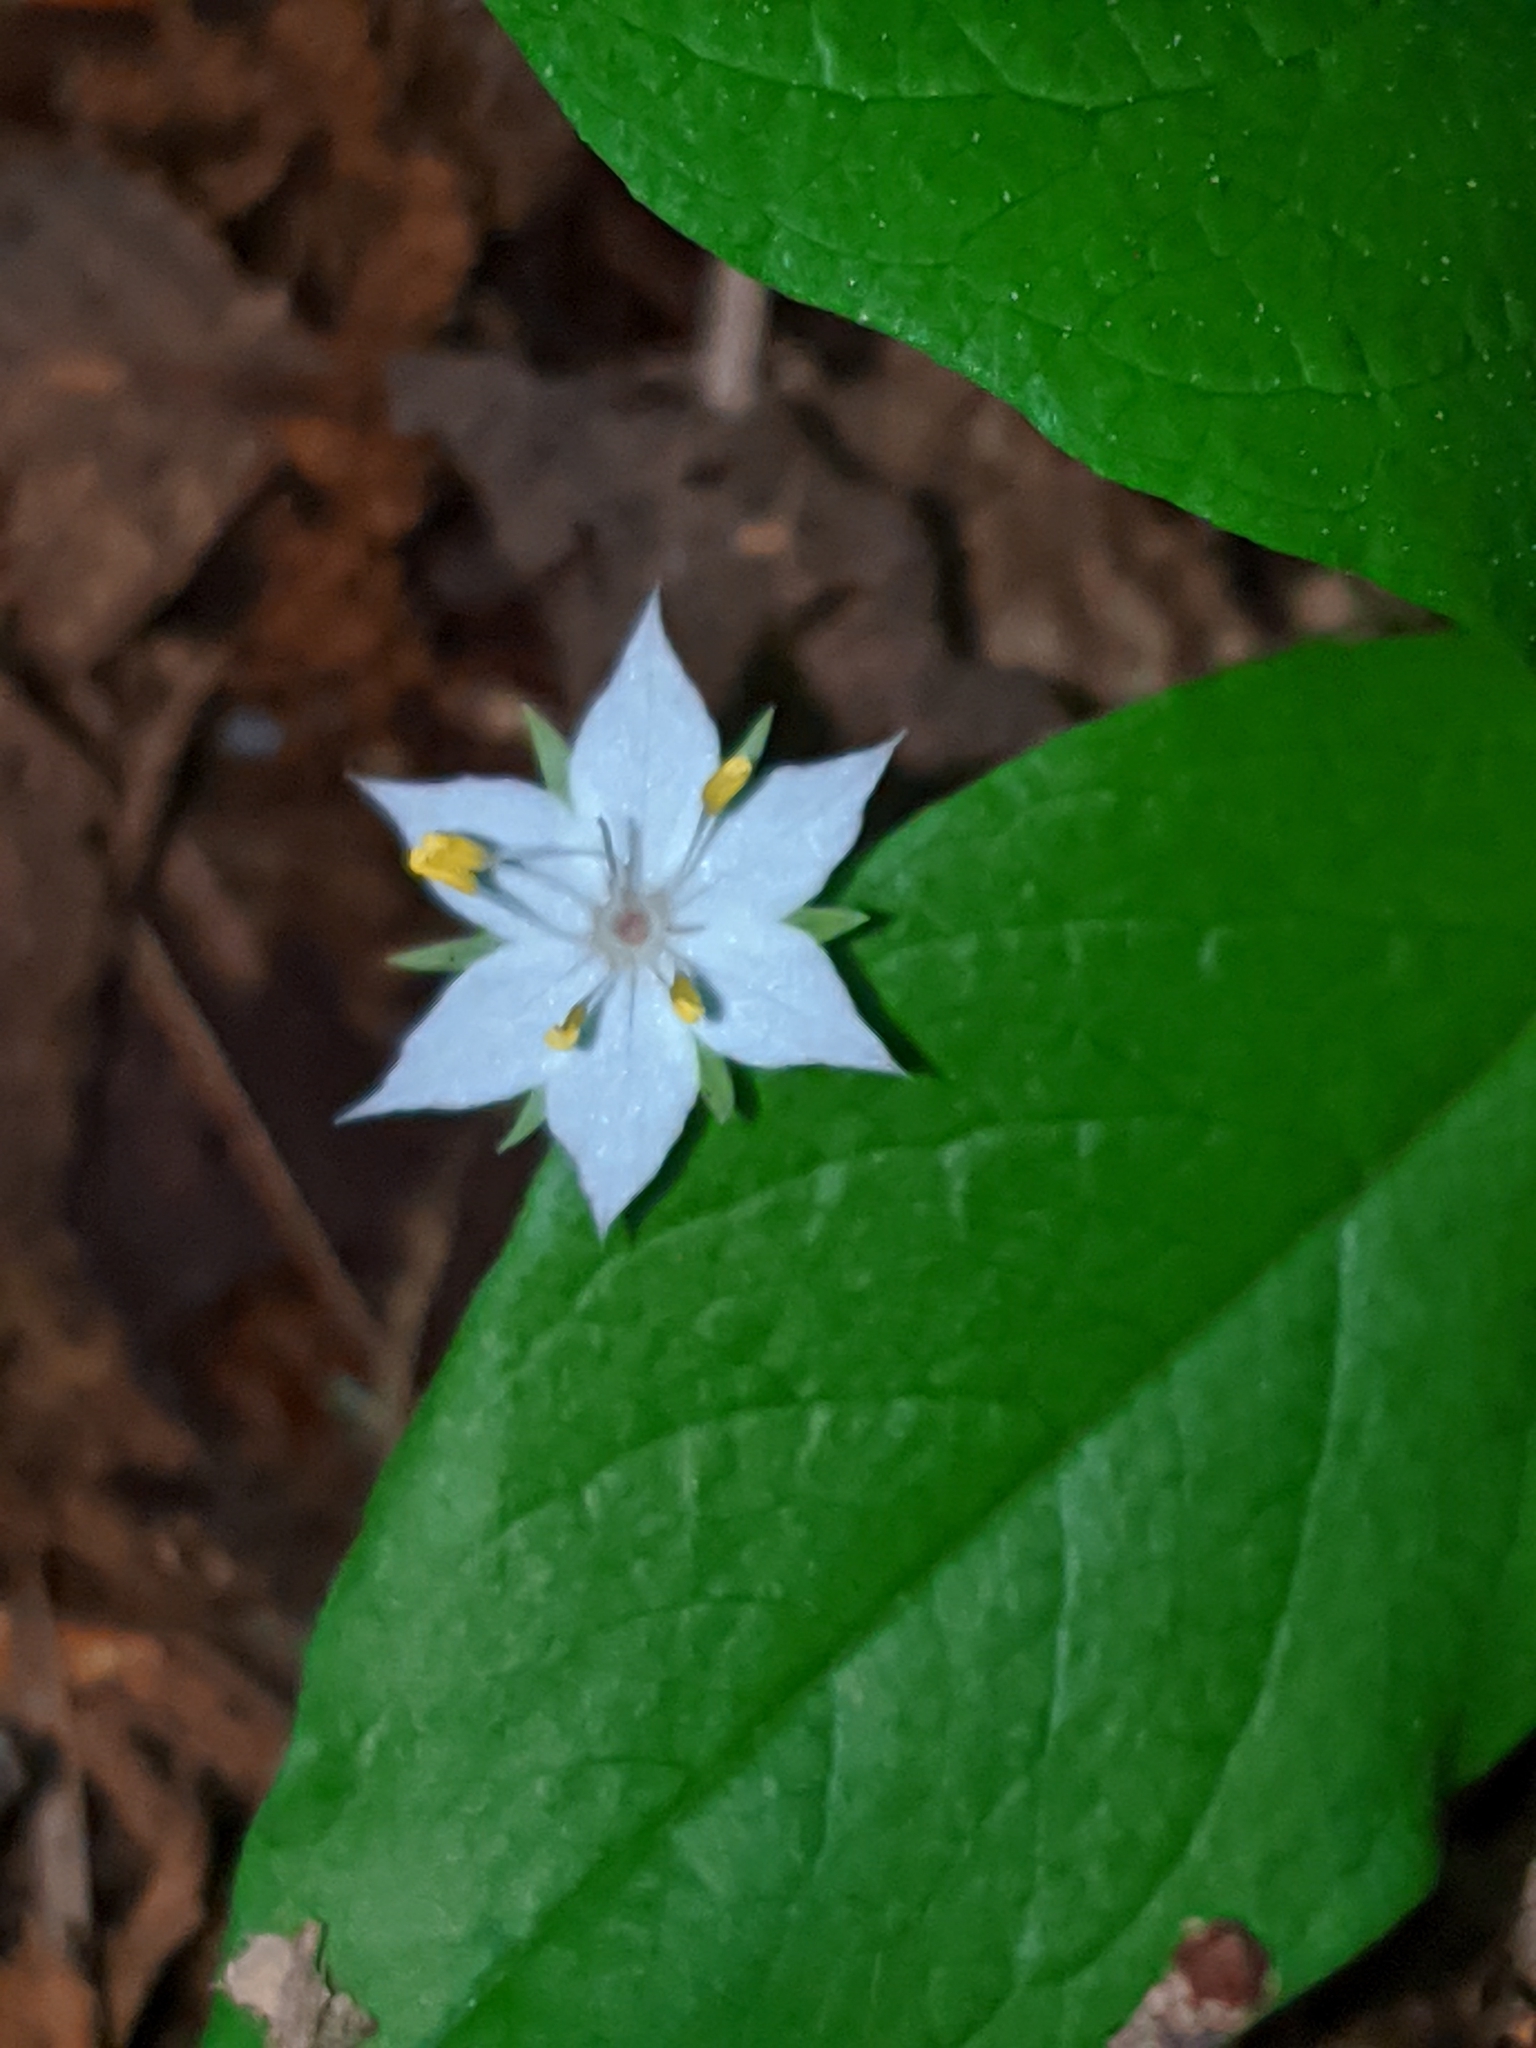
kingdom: Plantae
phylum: Tracheophyta
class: Magnoliopsida
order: Ericales
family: Primulaceae
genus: Lysimachia
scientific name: Lysimachia latifolia
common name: Pacific starflower
